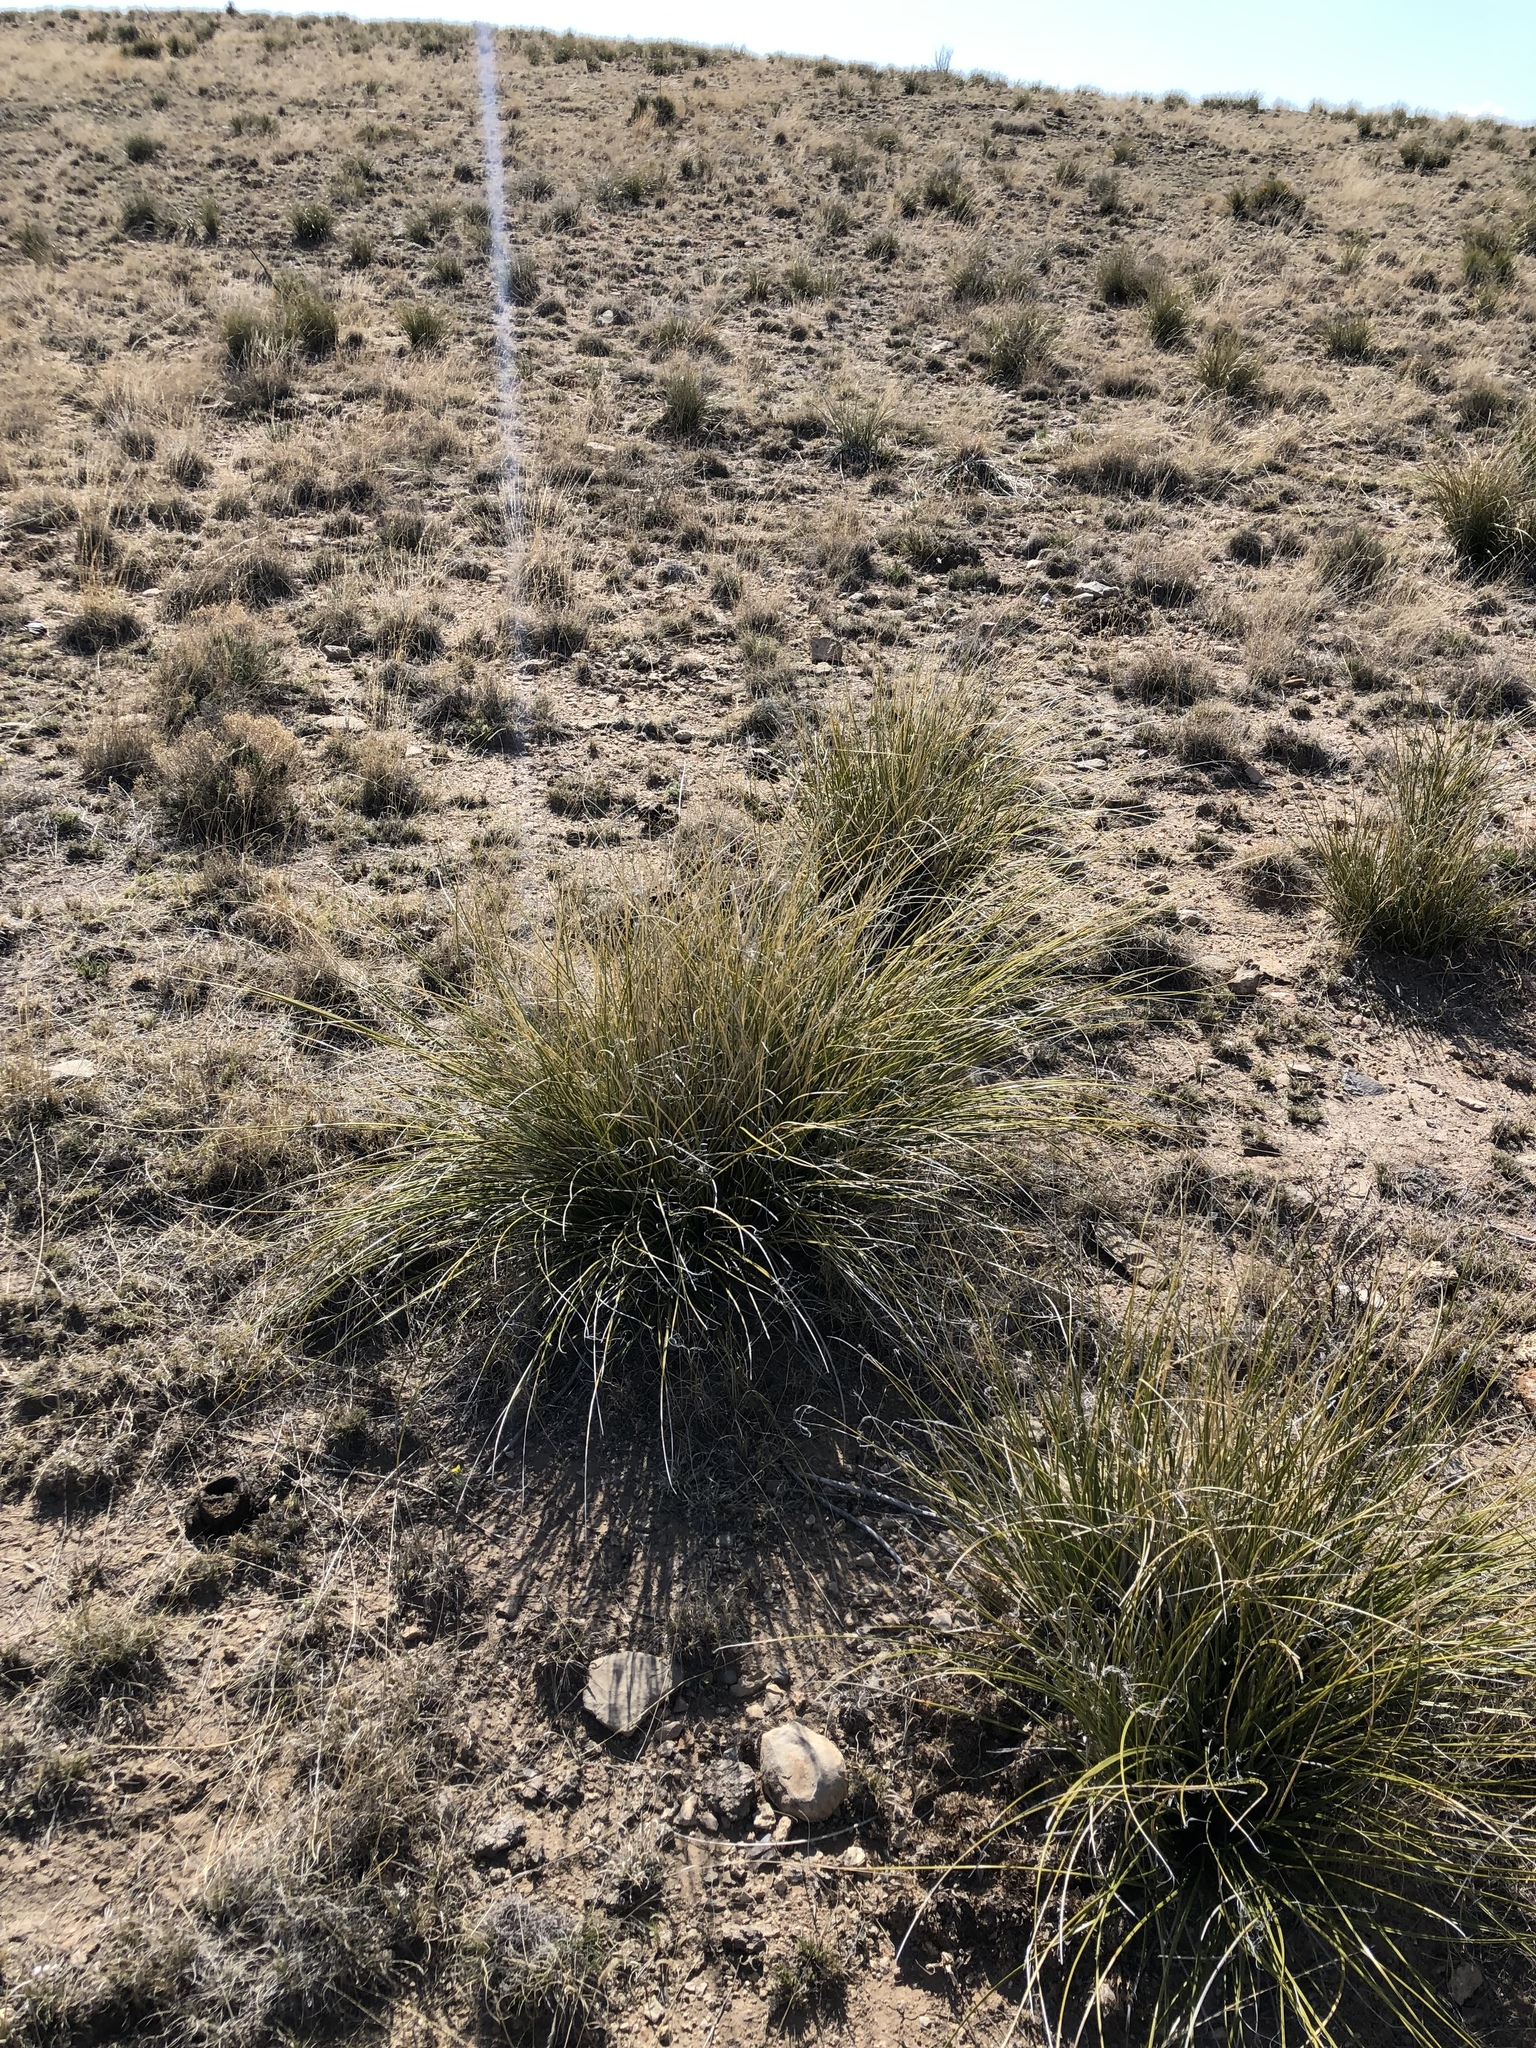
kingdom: Plantae
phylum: Tracheophyta
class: Liliopsida
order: Asparagales
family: Asparagaceae
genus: Nolina
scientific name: Nolina microcarpa
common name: Bear-grass
